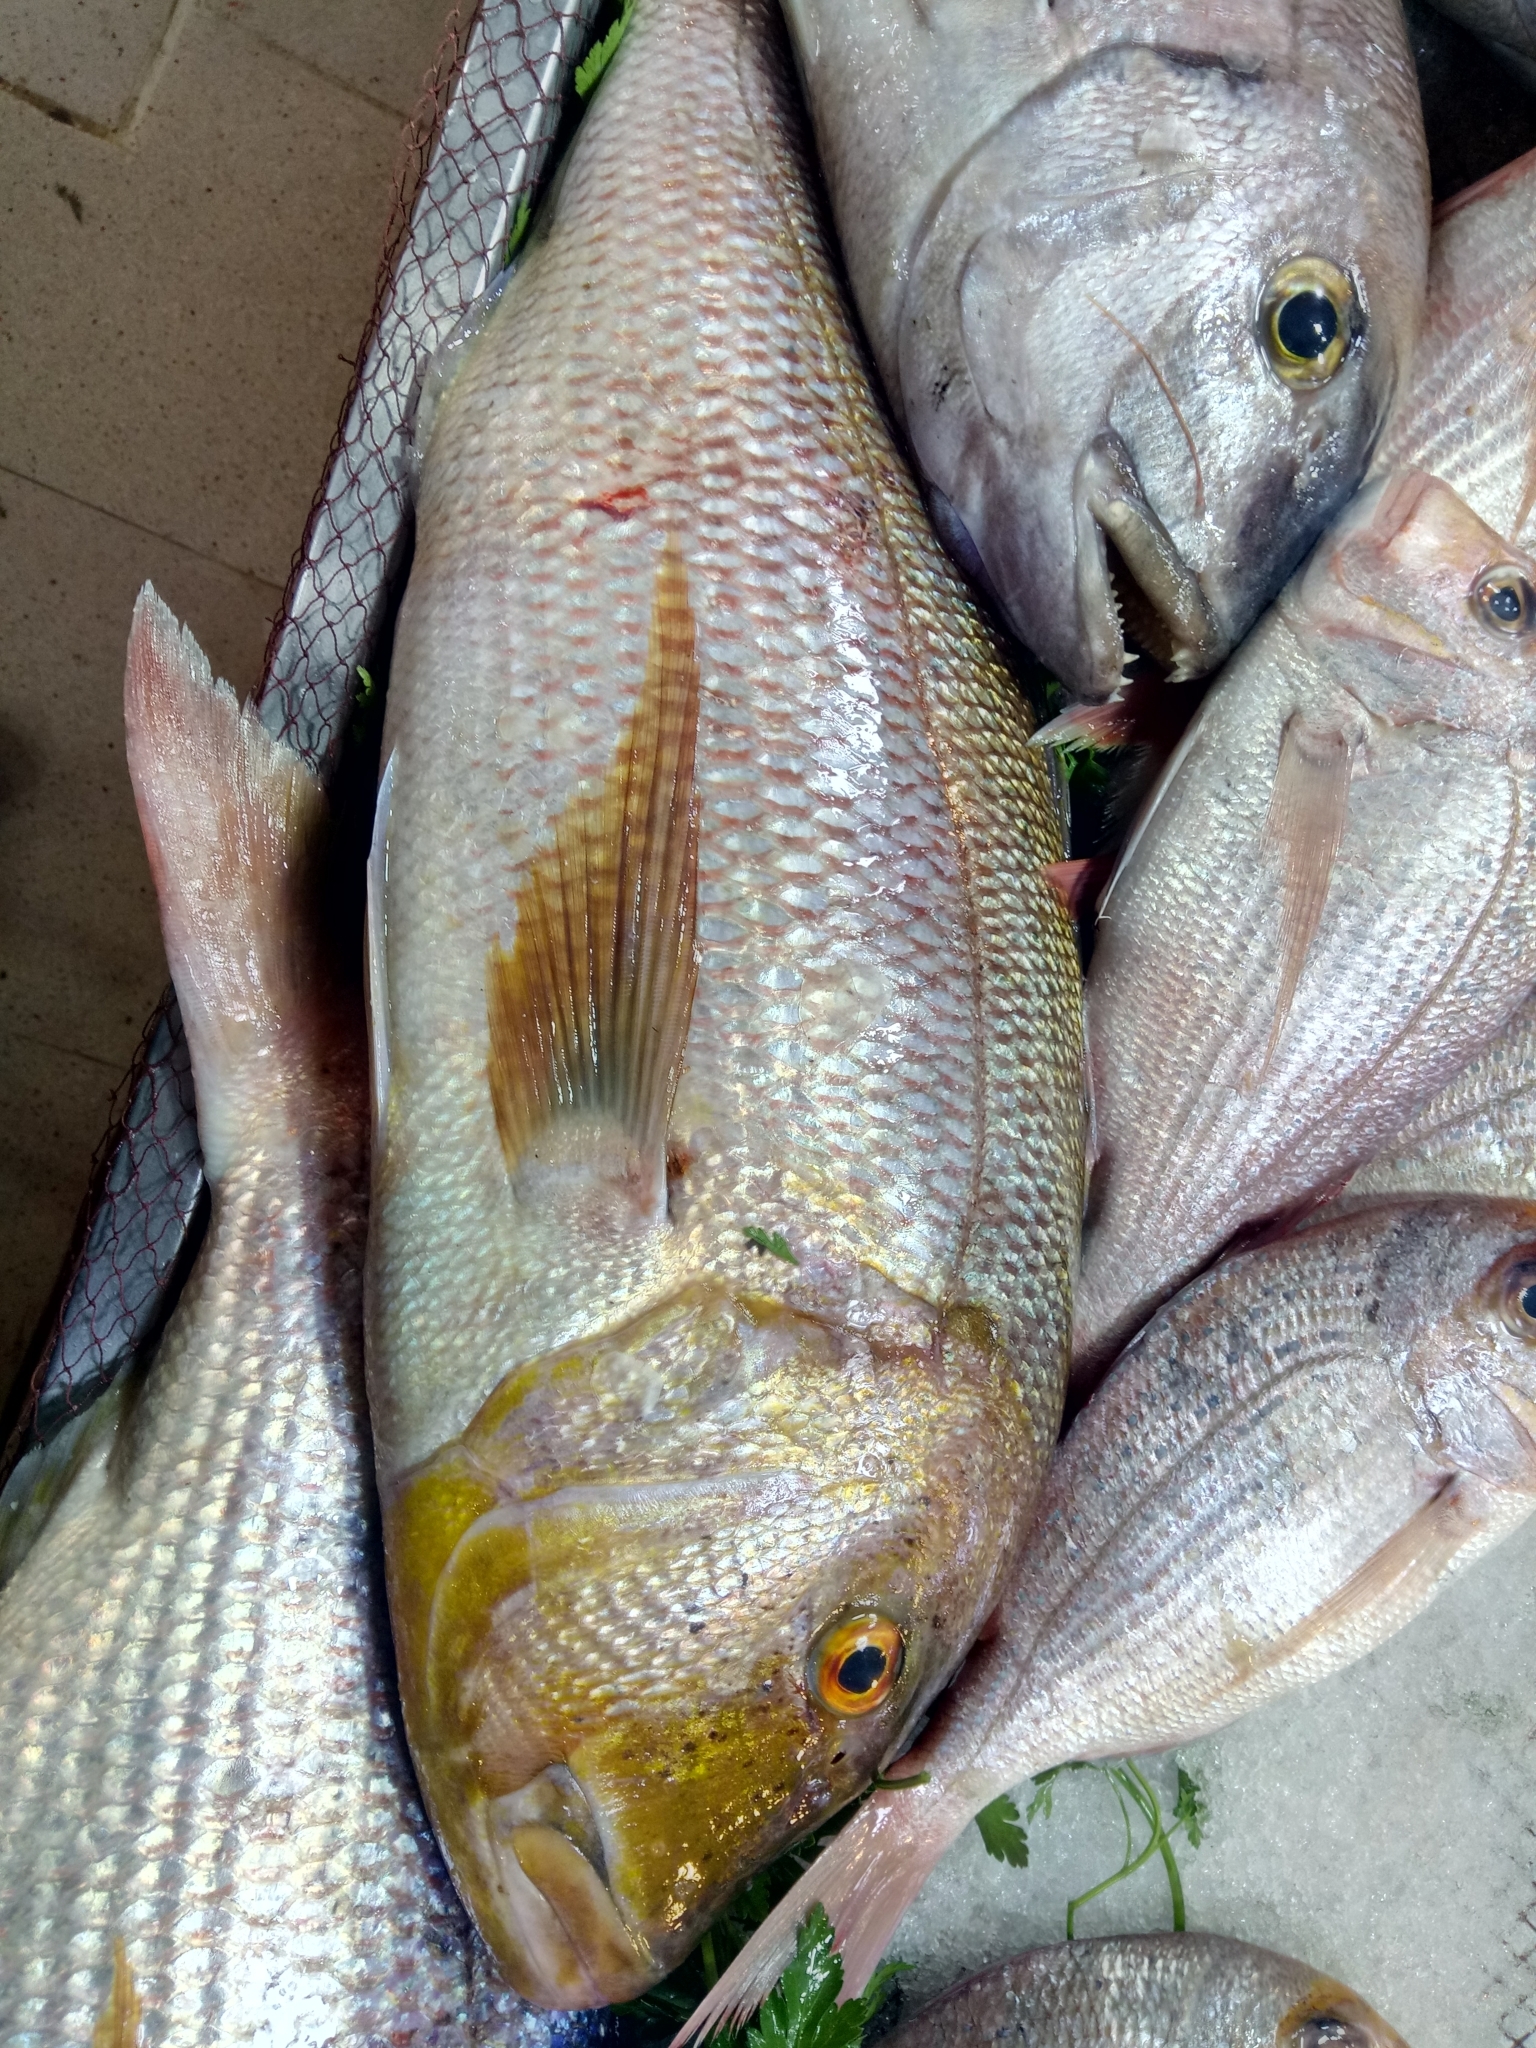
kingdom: Animalia
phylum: Chordata
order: Perciformes
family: Sparidae
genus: Dentex
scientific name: Dentex dentex
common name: Dentex
